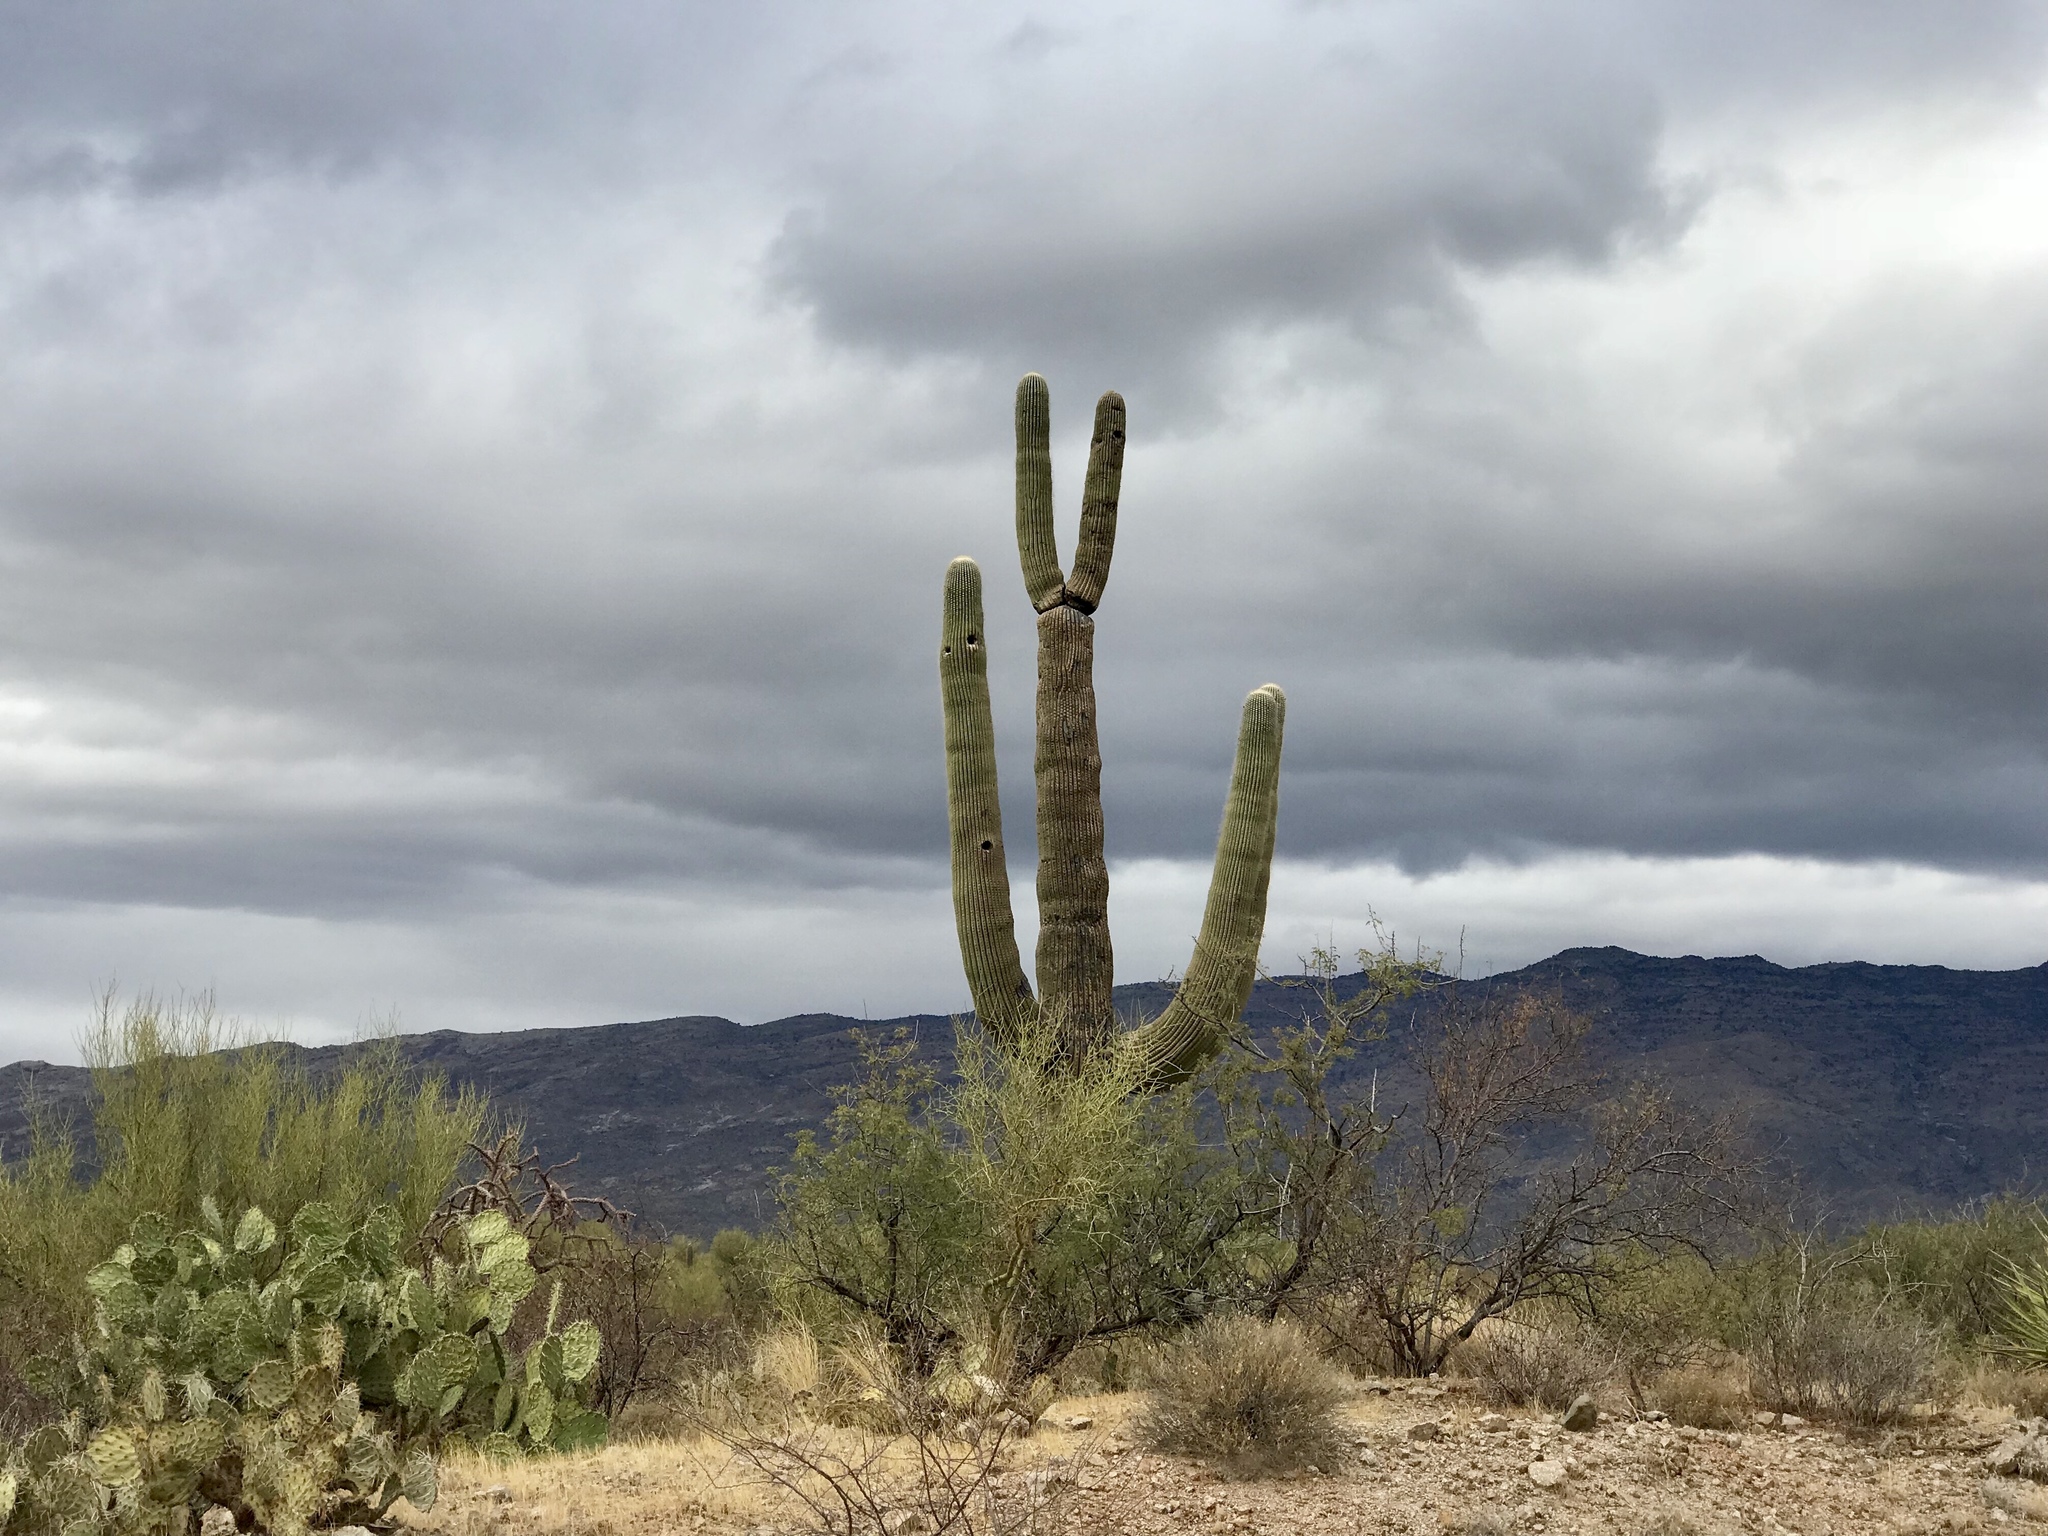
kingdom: Plantae
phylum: Tracheophyta
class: Magnoliopsida
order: Caryophyllales
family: Cactaceae
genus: Carnegiea
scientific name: Carnegiea gigantea
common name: Saguaro
